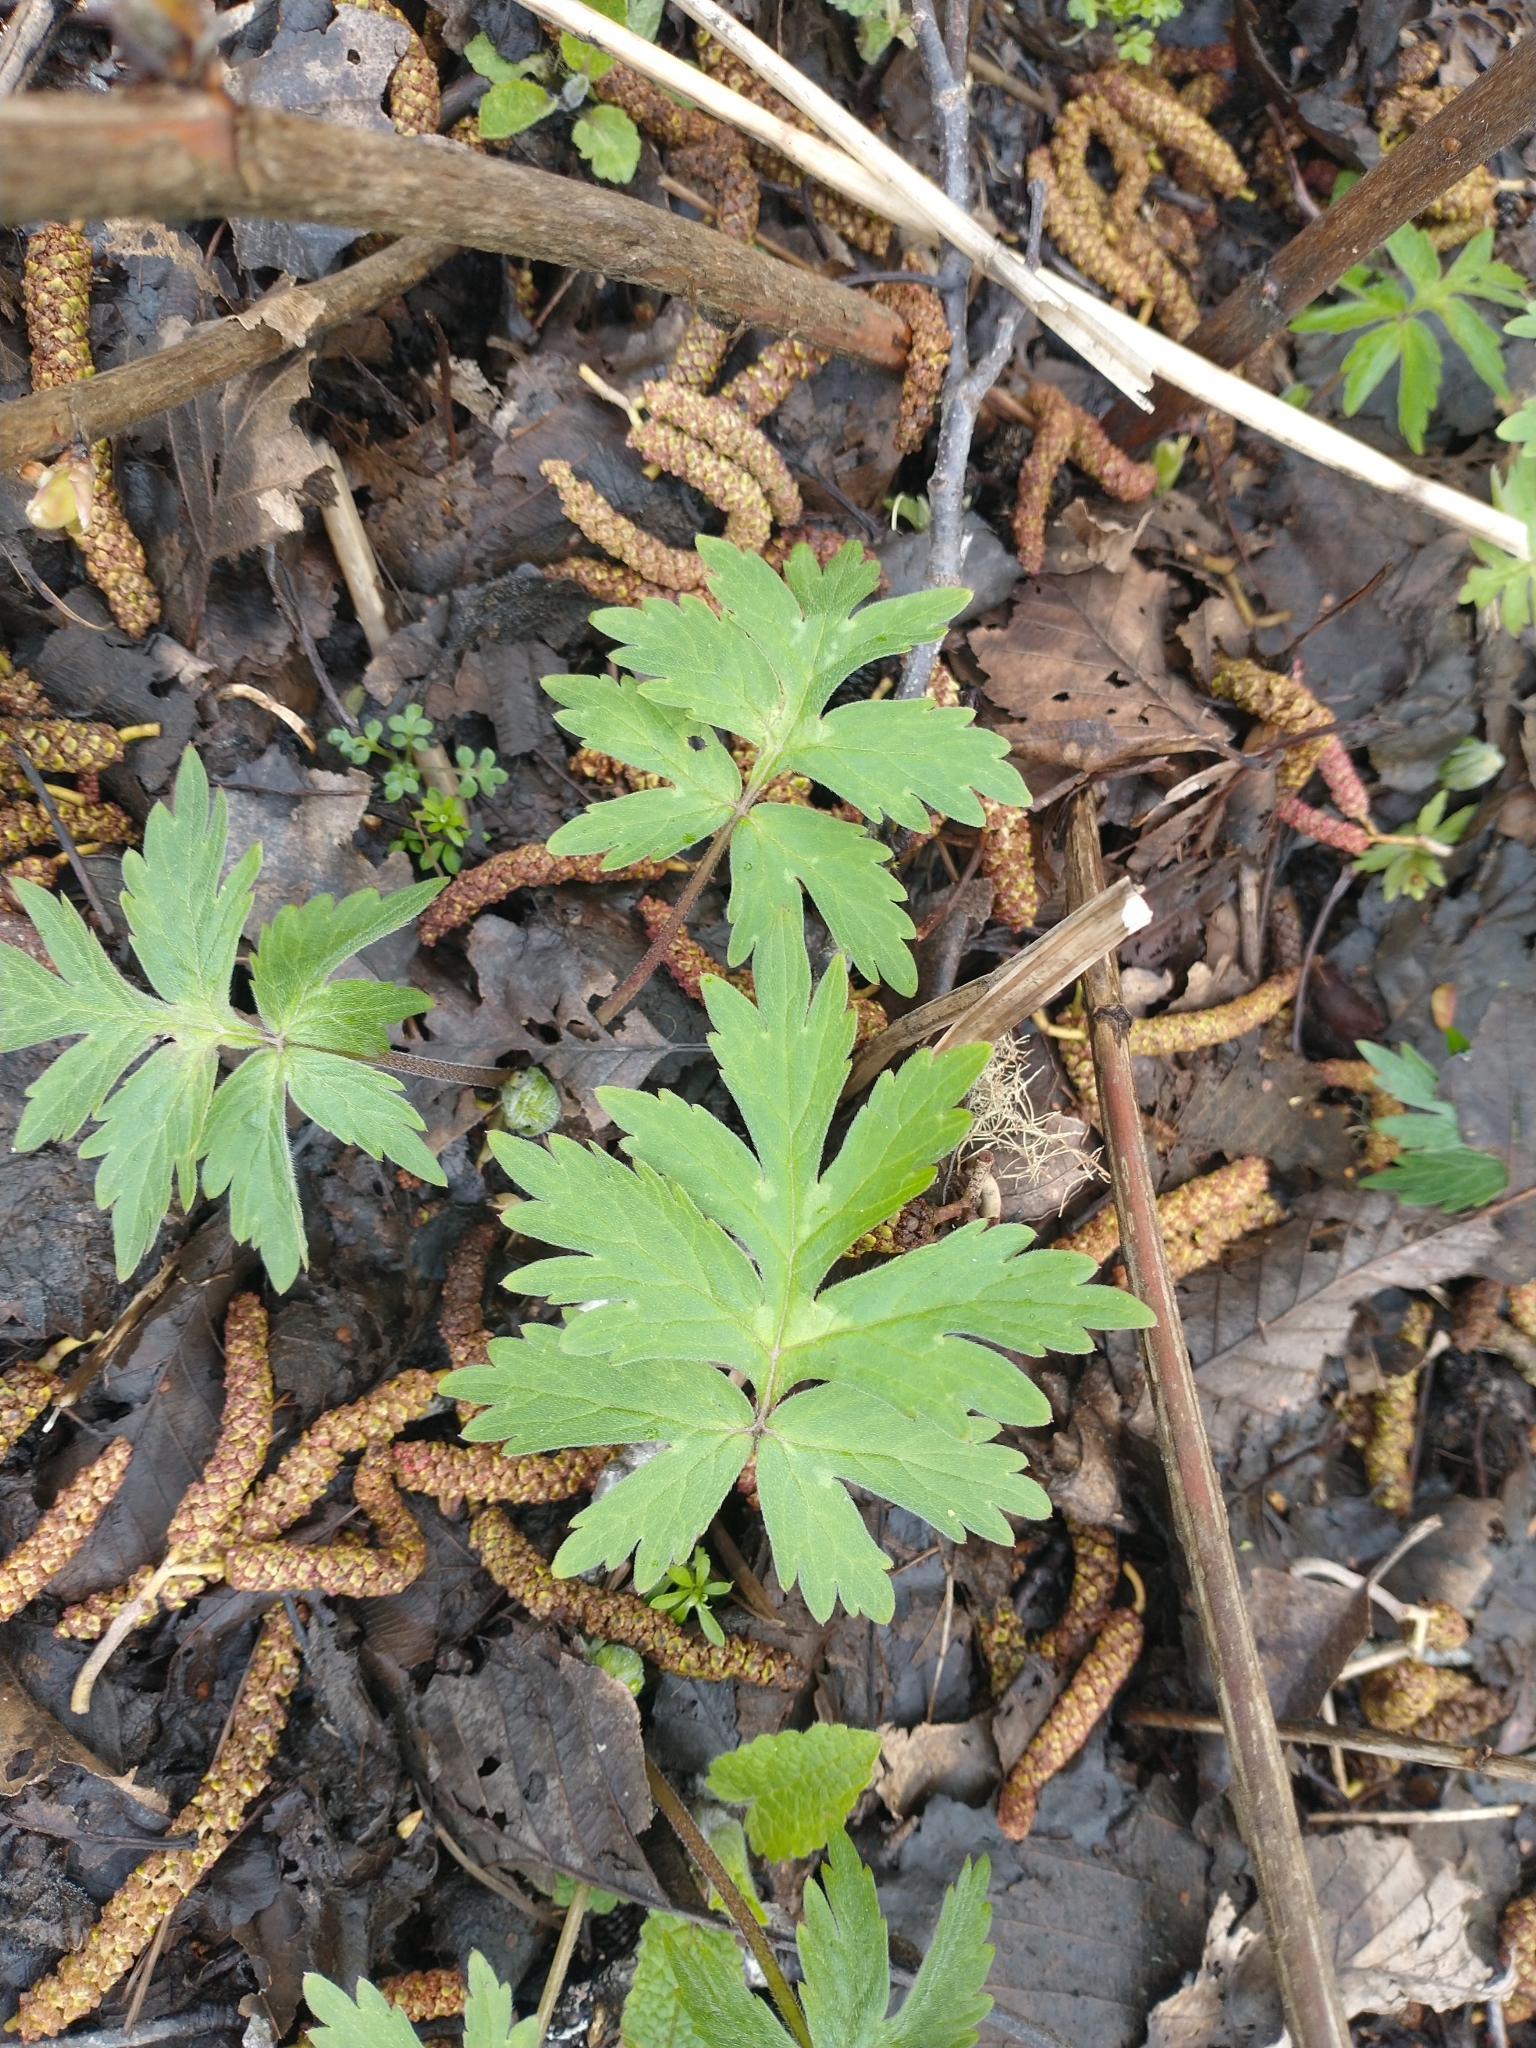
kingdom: Plantae
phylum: Tracheophyta
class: Magnoliopsida
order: Boraginales
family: Hydrophyllaceae
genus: Hydrophyllum
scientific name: Hydrophyllum occidentale
